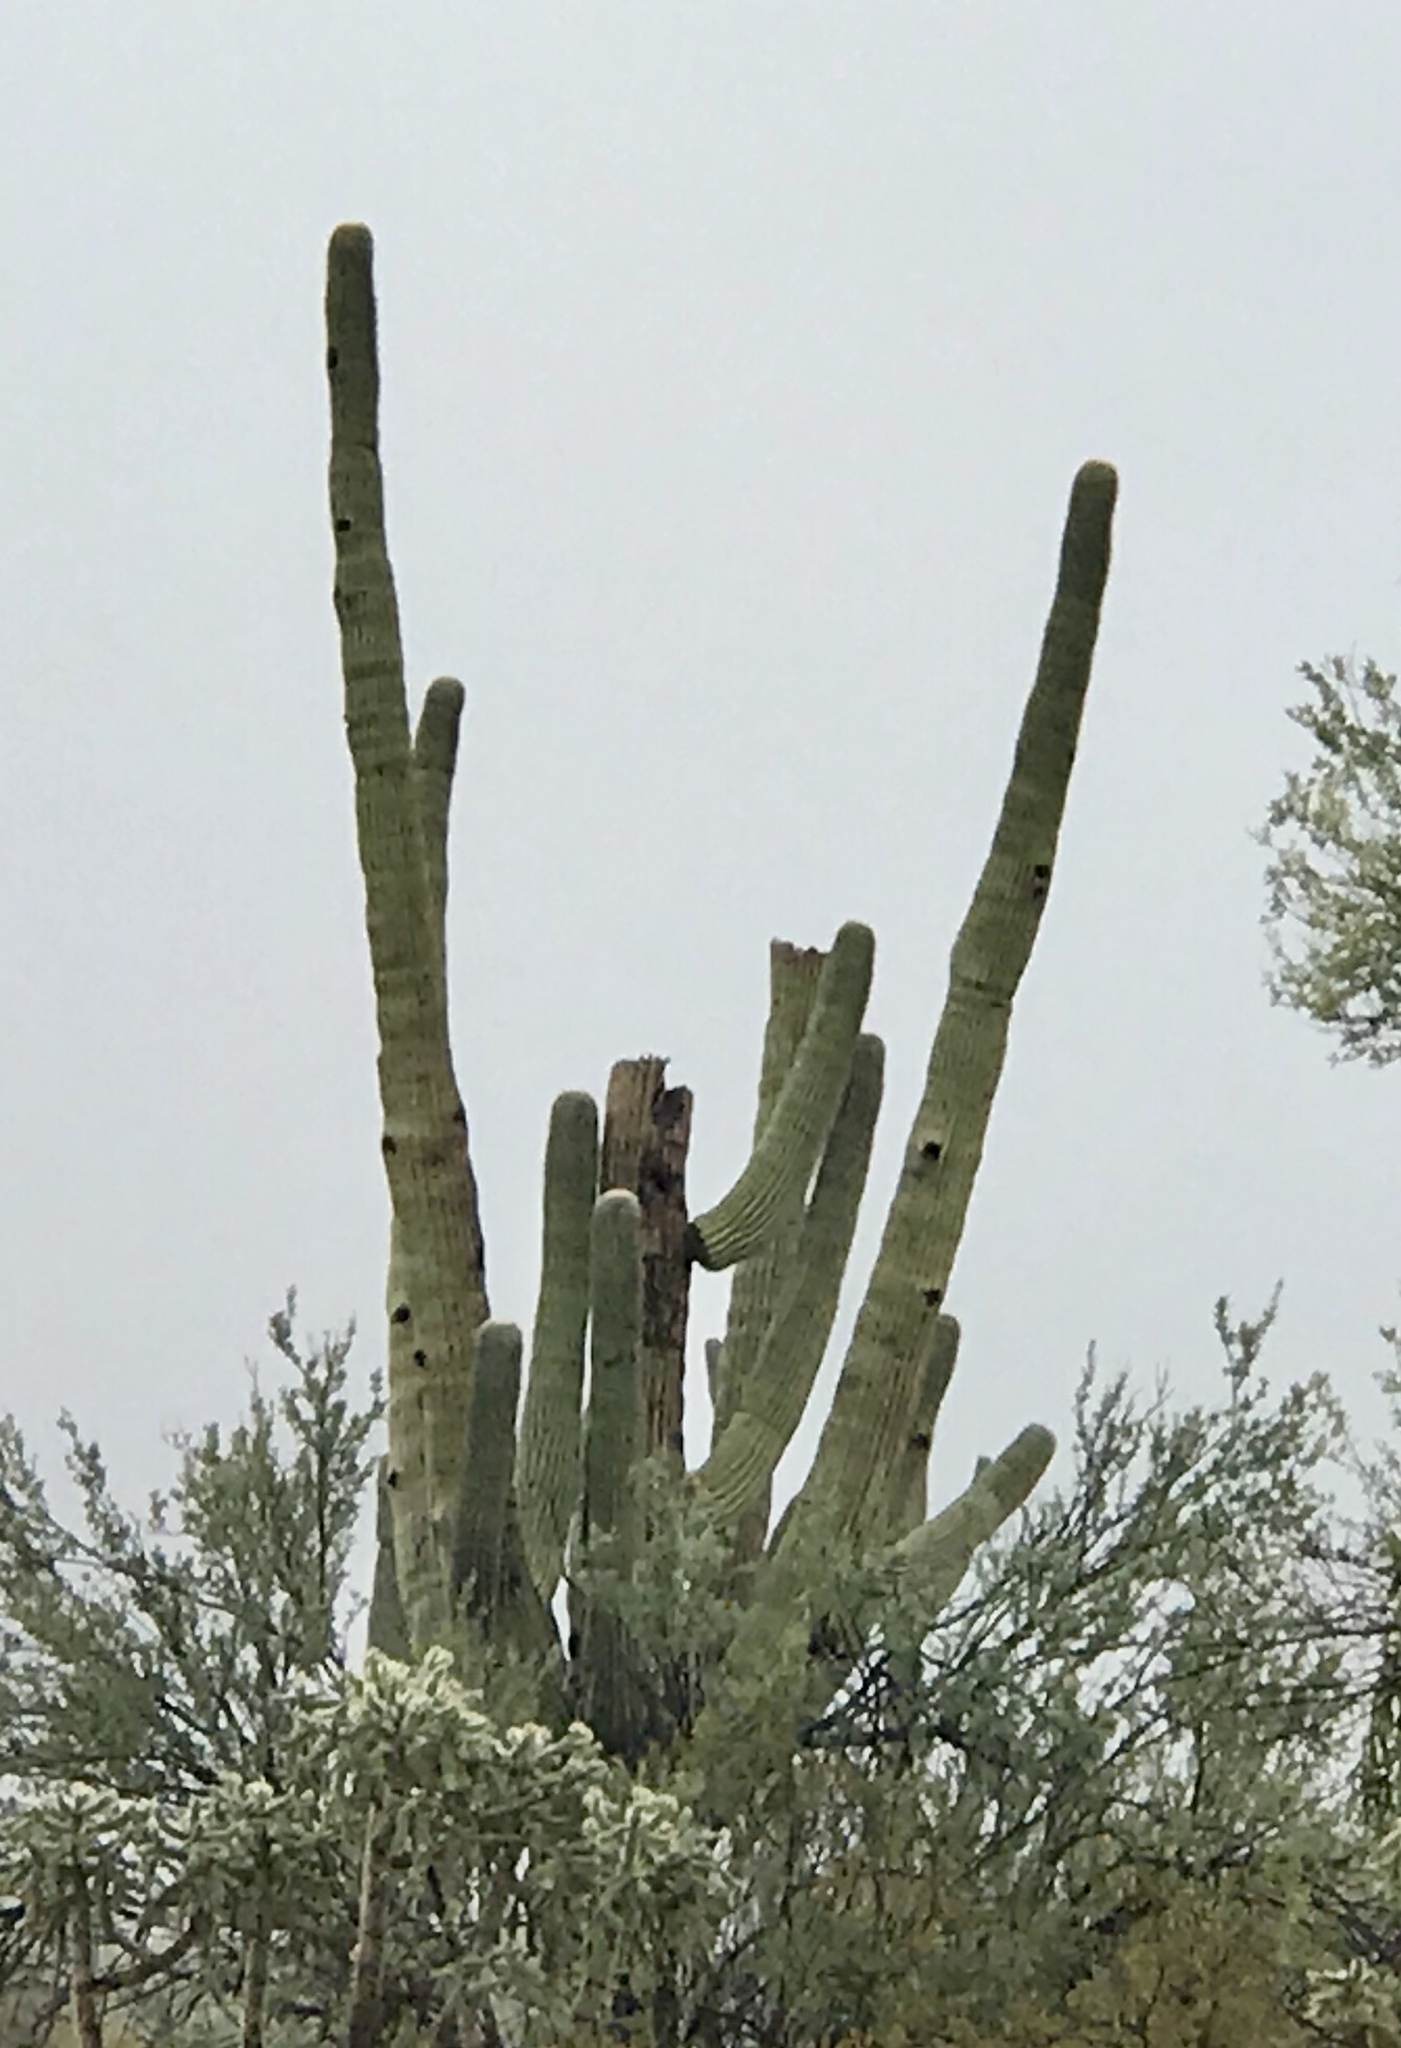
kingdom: Plantae
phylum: Tracheophyta
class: Magnoliopsida
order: Caryophyllales
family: Cactaceae
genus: Carnegiea
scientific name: Carnegiea gigantea
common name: Saguaro
